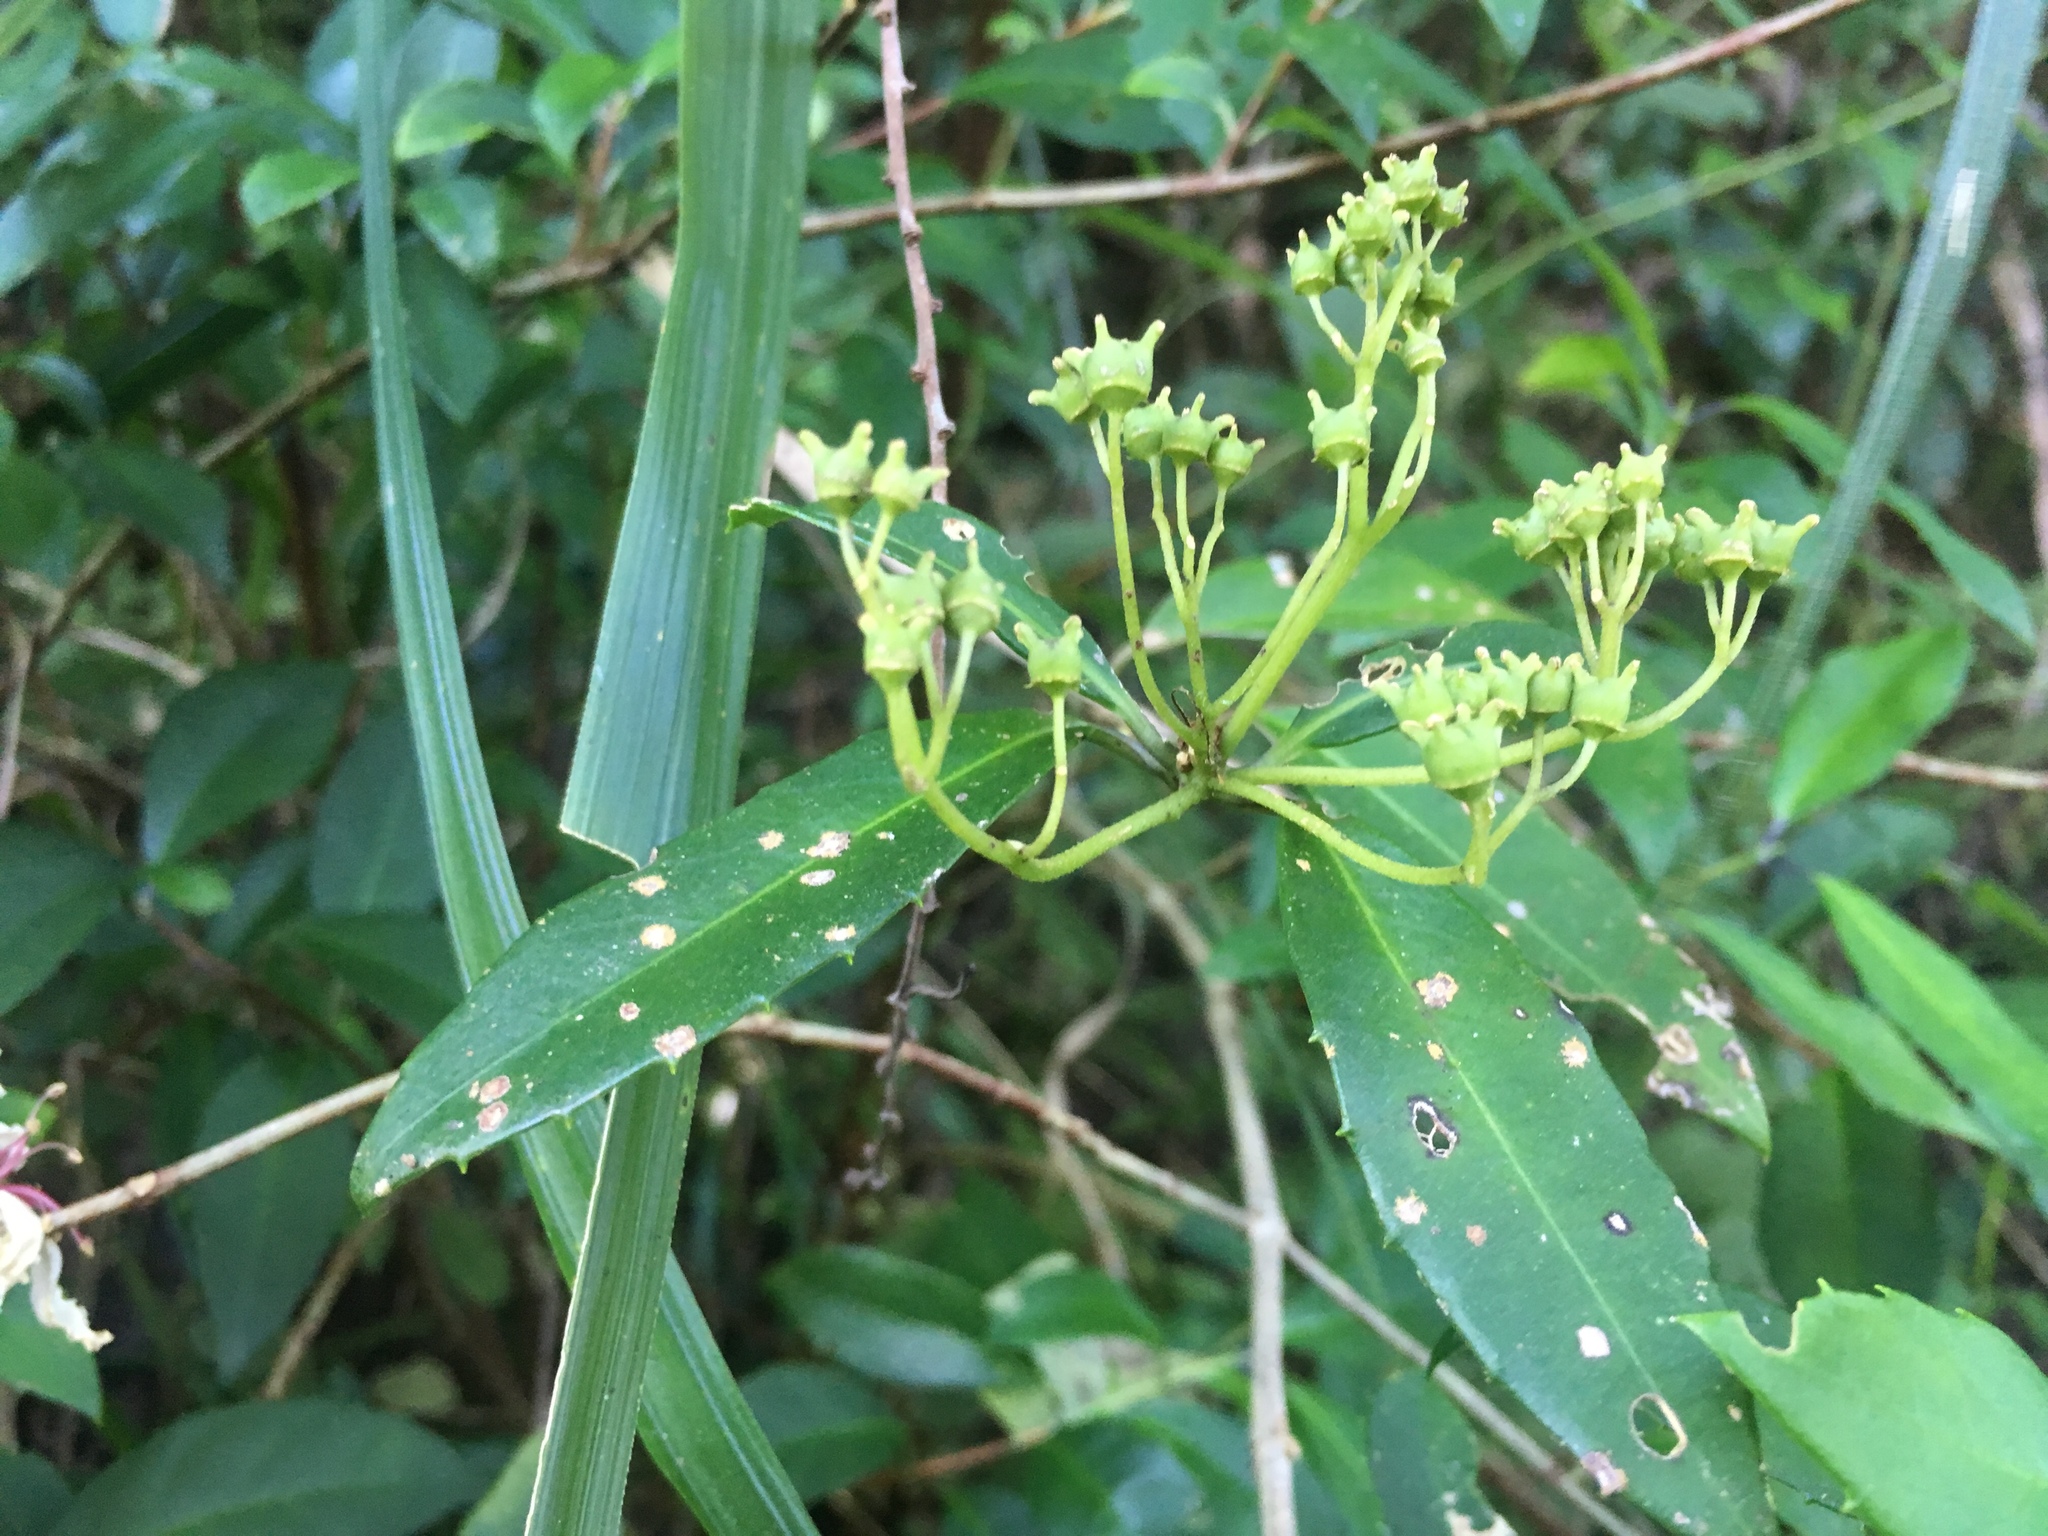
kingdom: Plantae
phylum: Tracheophyta
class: Magnoliopsida
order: Cornales
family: Hydrangeaceae
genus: Hydrangea
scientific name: Hydrangea chinensis
